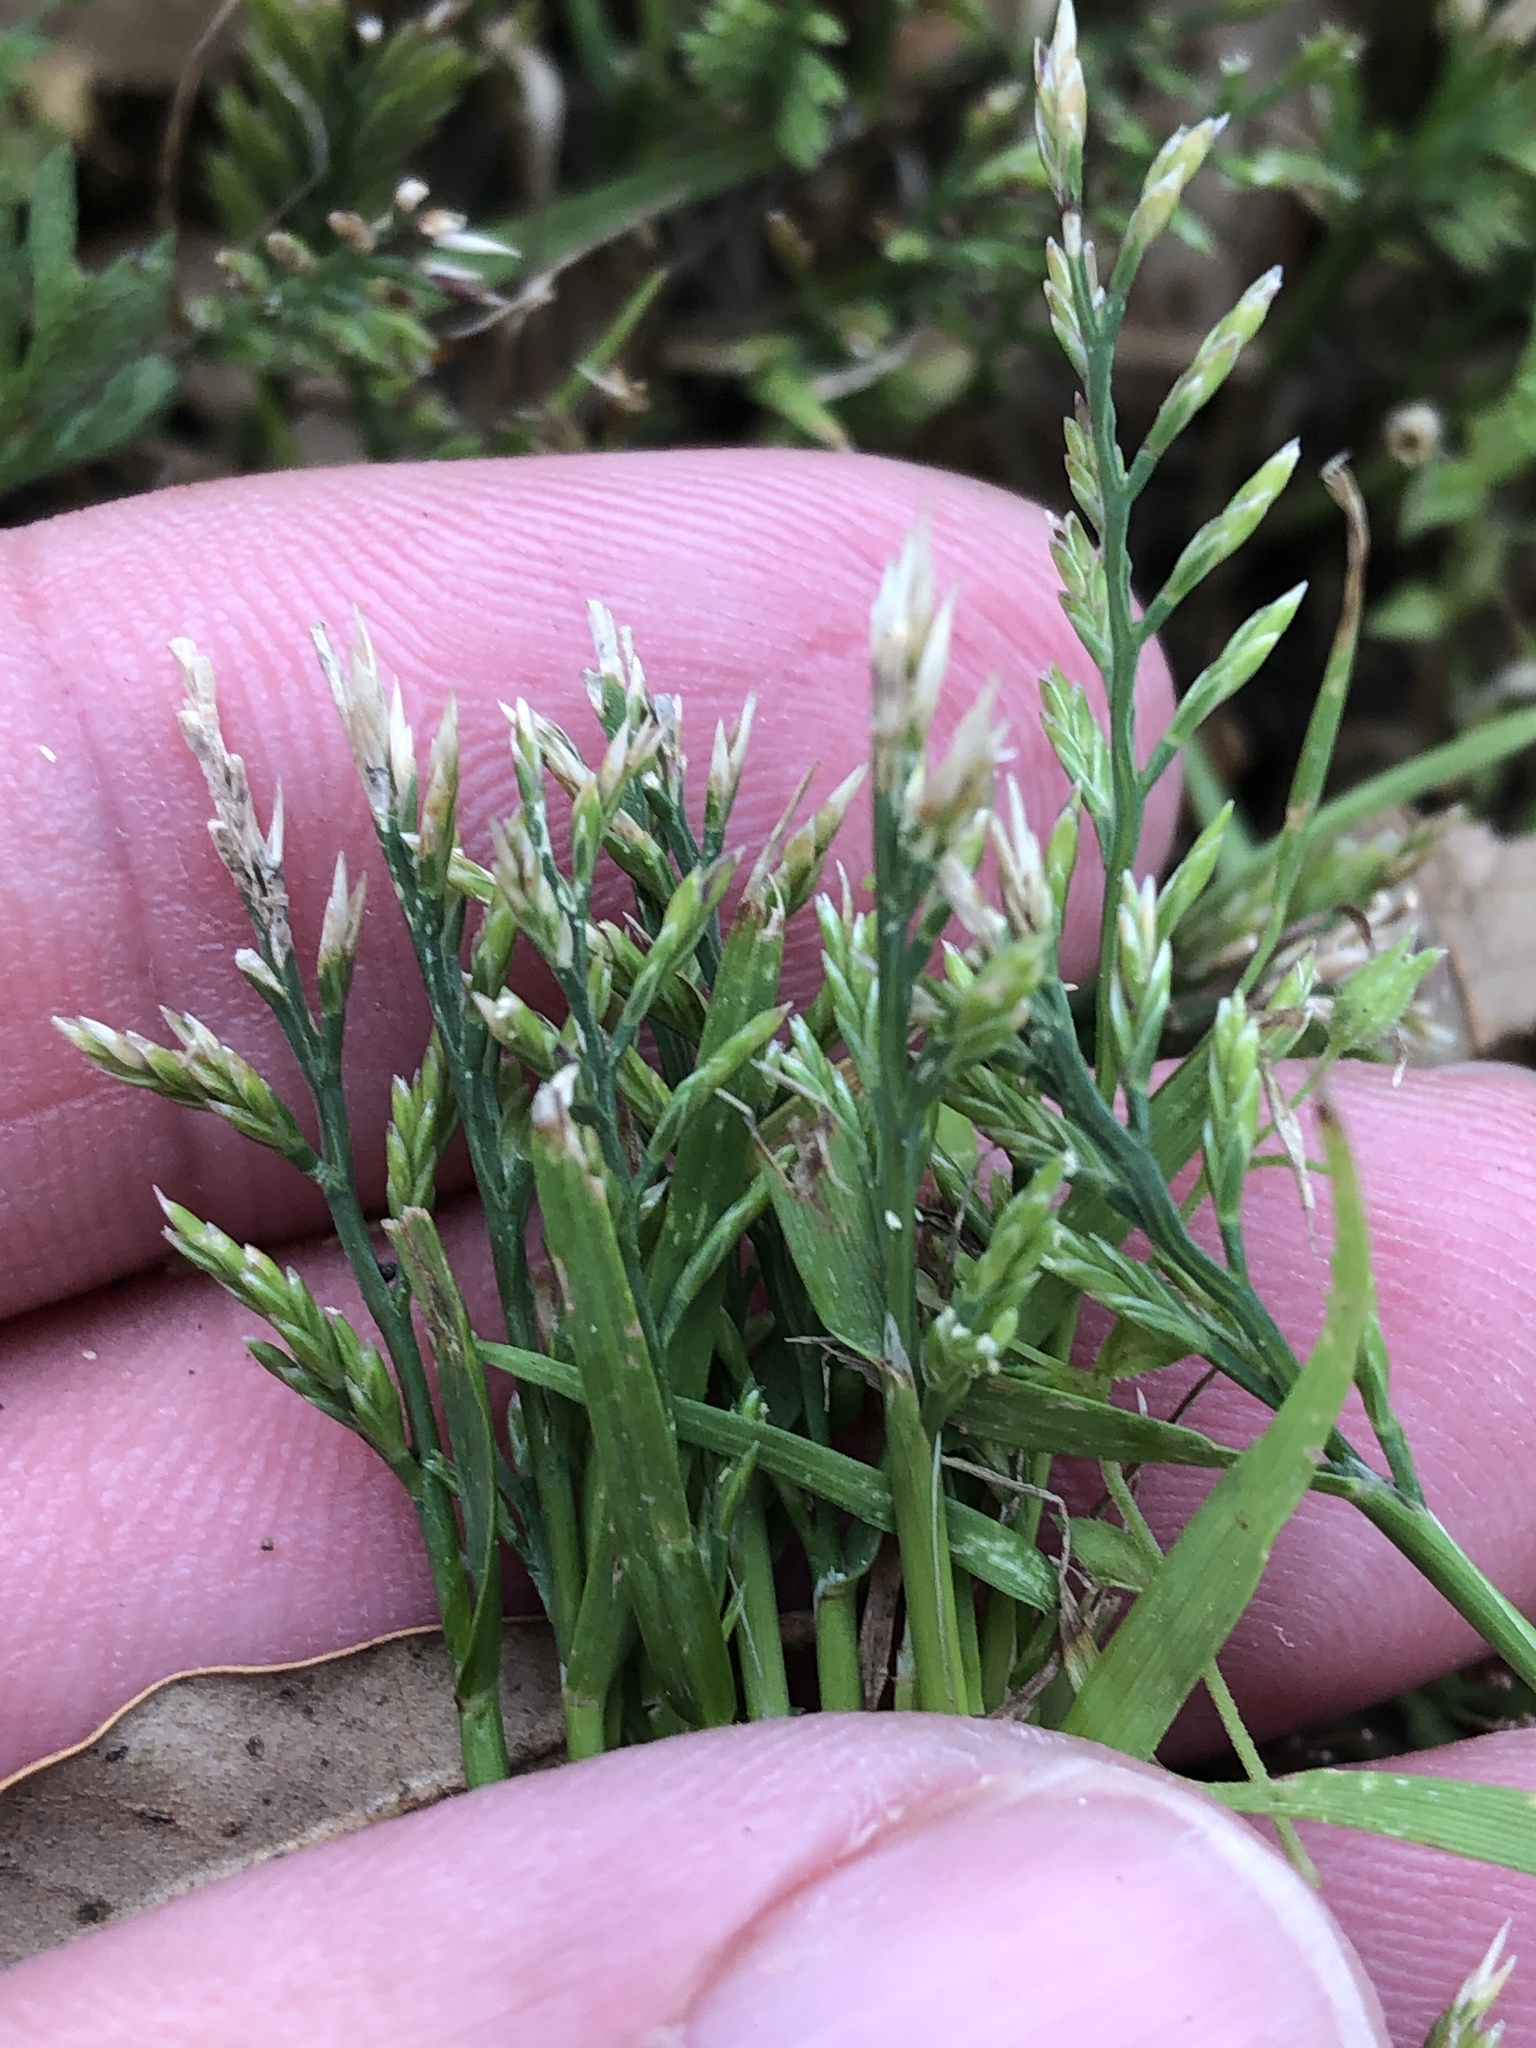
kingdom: Plantae
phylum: Tracheophyta
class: Liliopsida
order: Poales
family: Poaceae
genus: Catapodium
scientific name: Catapodium rigidum
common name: Fern-grass
